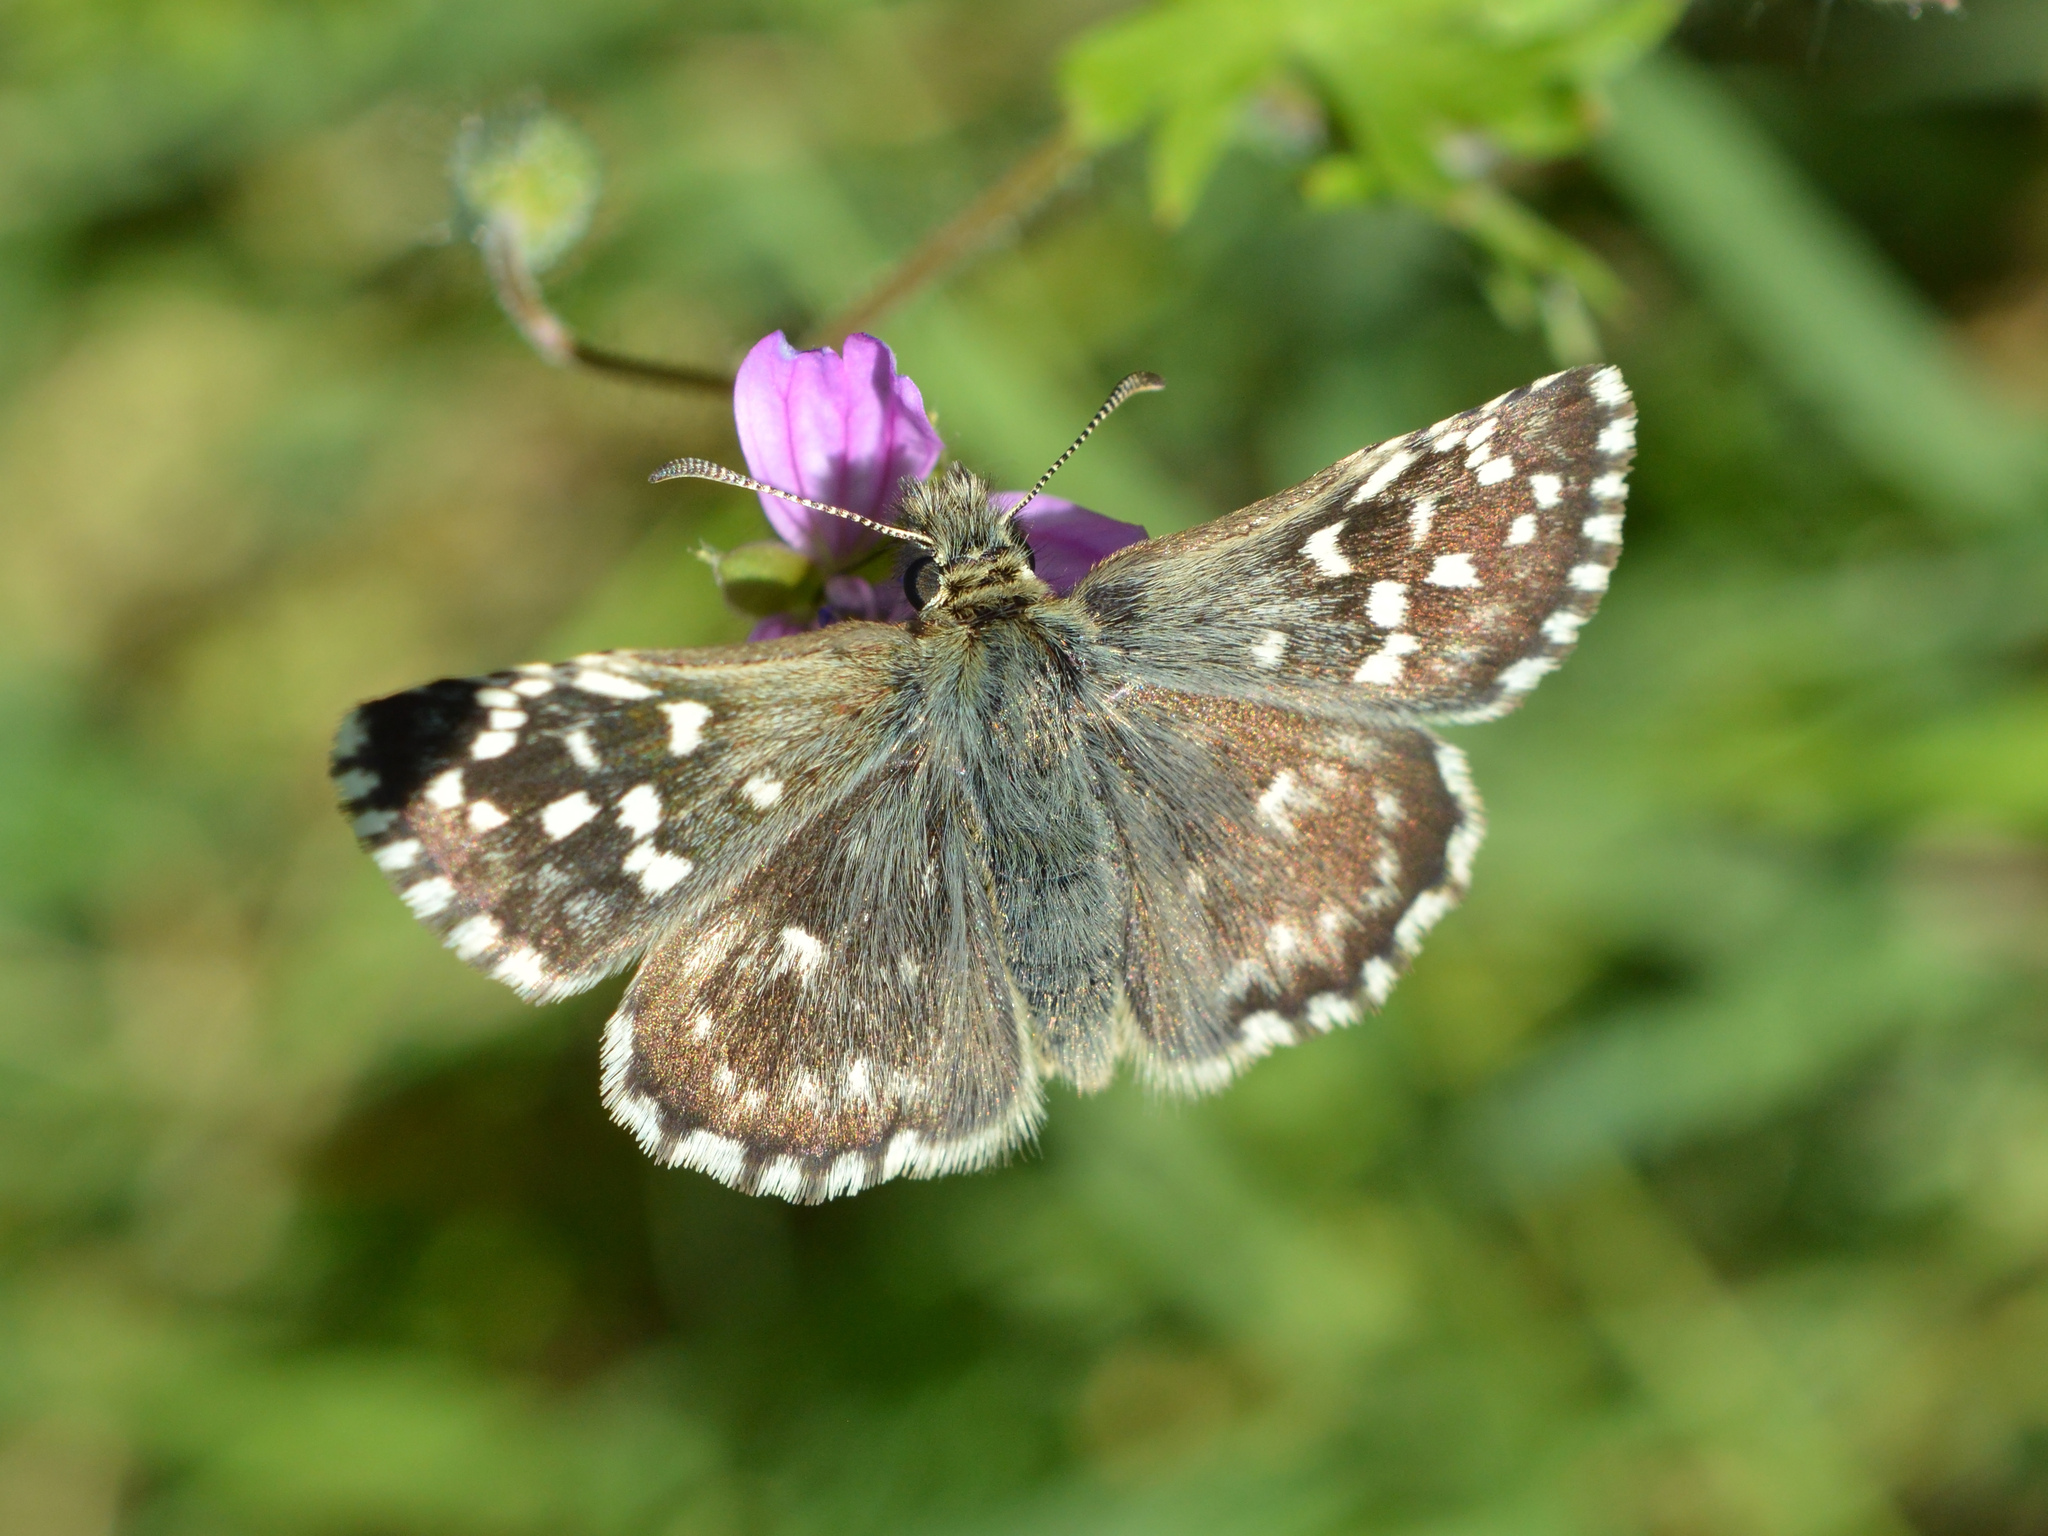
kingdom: Animalia
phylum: Arthropoda
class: Insecta
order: Lepidoptera
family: Hesperiidae
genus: Pyrgus
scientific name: Pyrgus malvae
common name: Grizzled skipper
